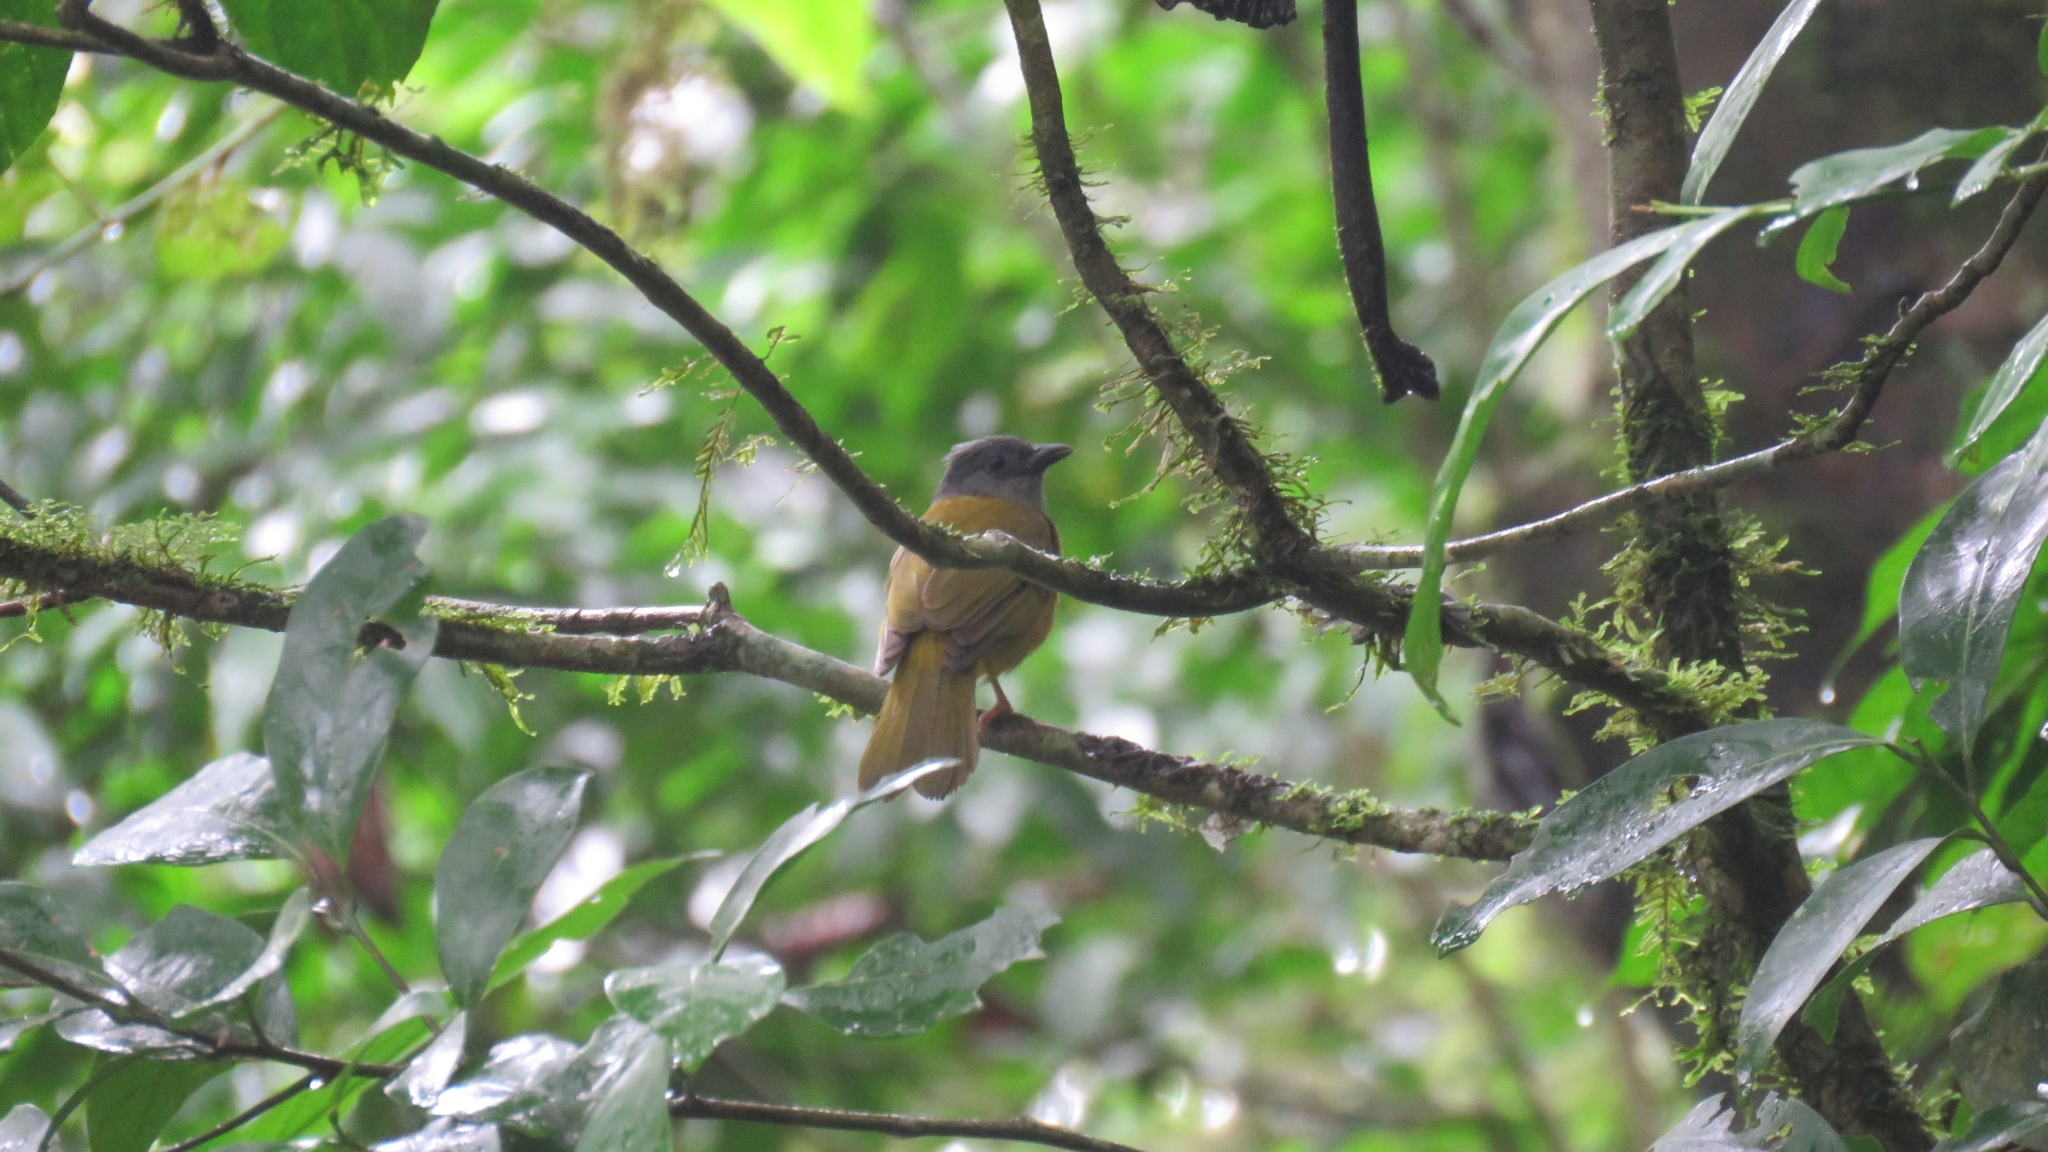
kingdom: Animalia
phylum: Chordata
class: Aves
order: Passeriformes
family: Thraupidae
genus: Eucometis
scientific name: Eucometis penicillata
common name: Grey-headed tanager
